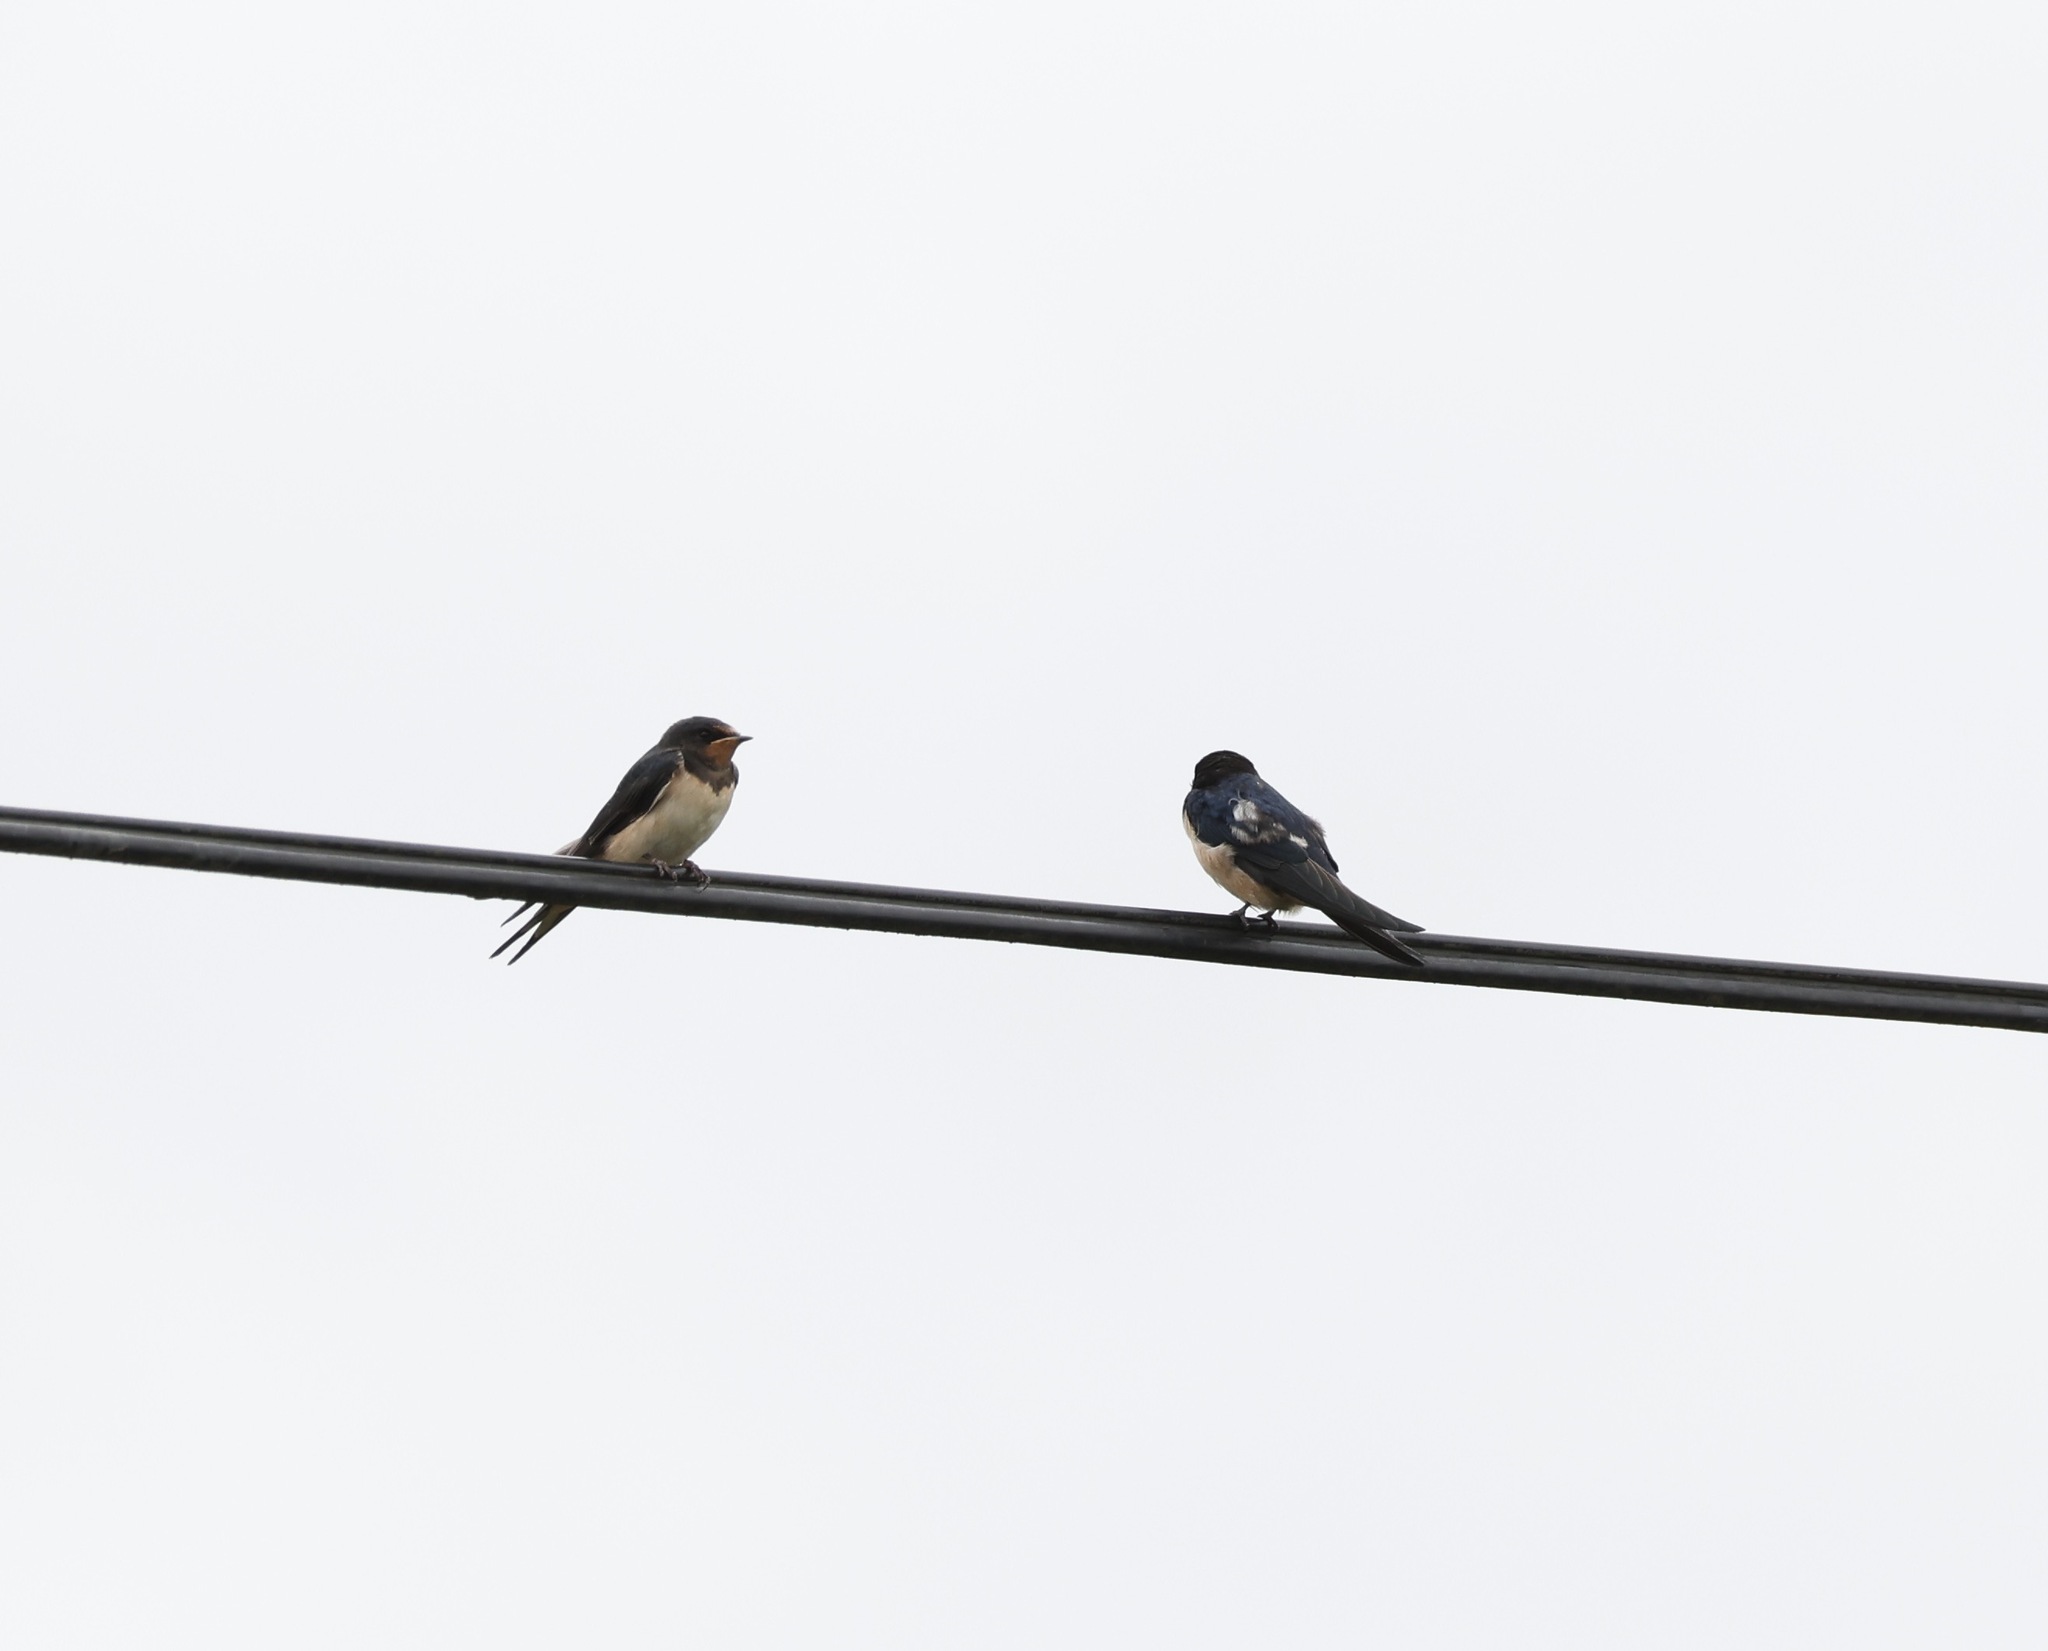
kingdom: Animalia
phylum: Chordata
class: Aves
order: Passeriformes
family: Hirundinidae
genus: Hirundo
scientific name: Hirundo rustica
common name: Barn swallow
